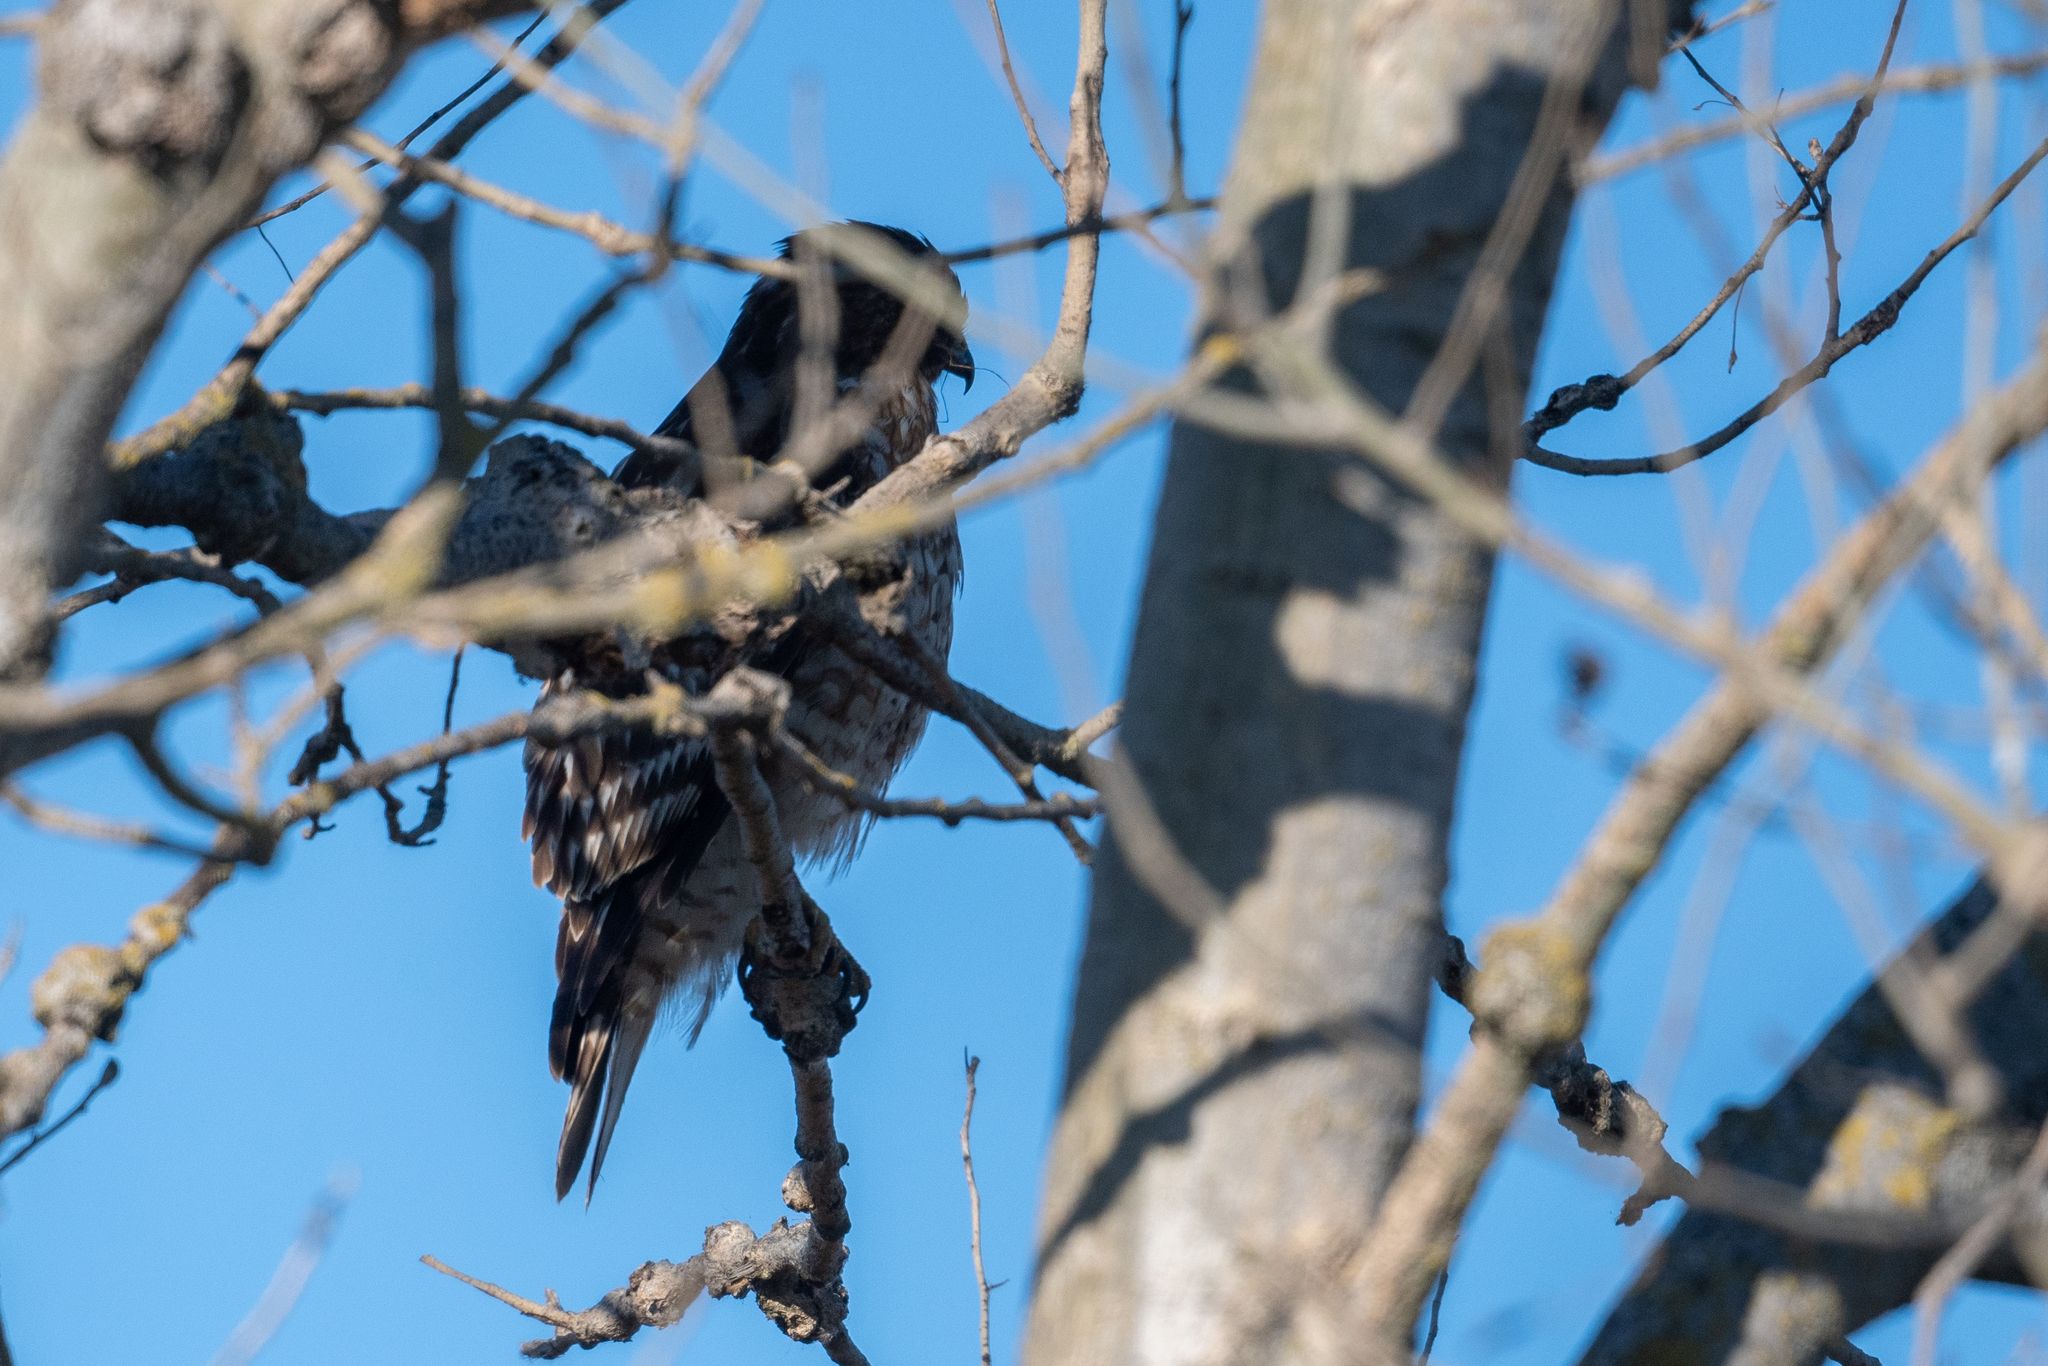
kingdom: Animalia
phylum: Chordata
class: Aves
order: Accipitriformes
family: Accipitridae
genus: Buteo
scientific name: Buteo lineatus
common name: Red-shouldered hawk
